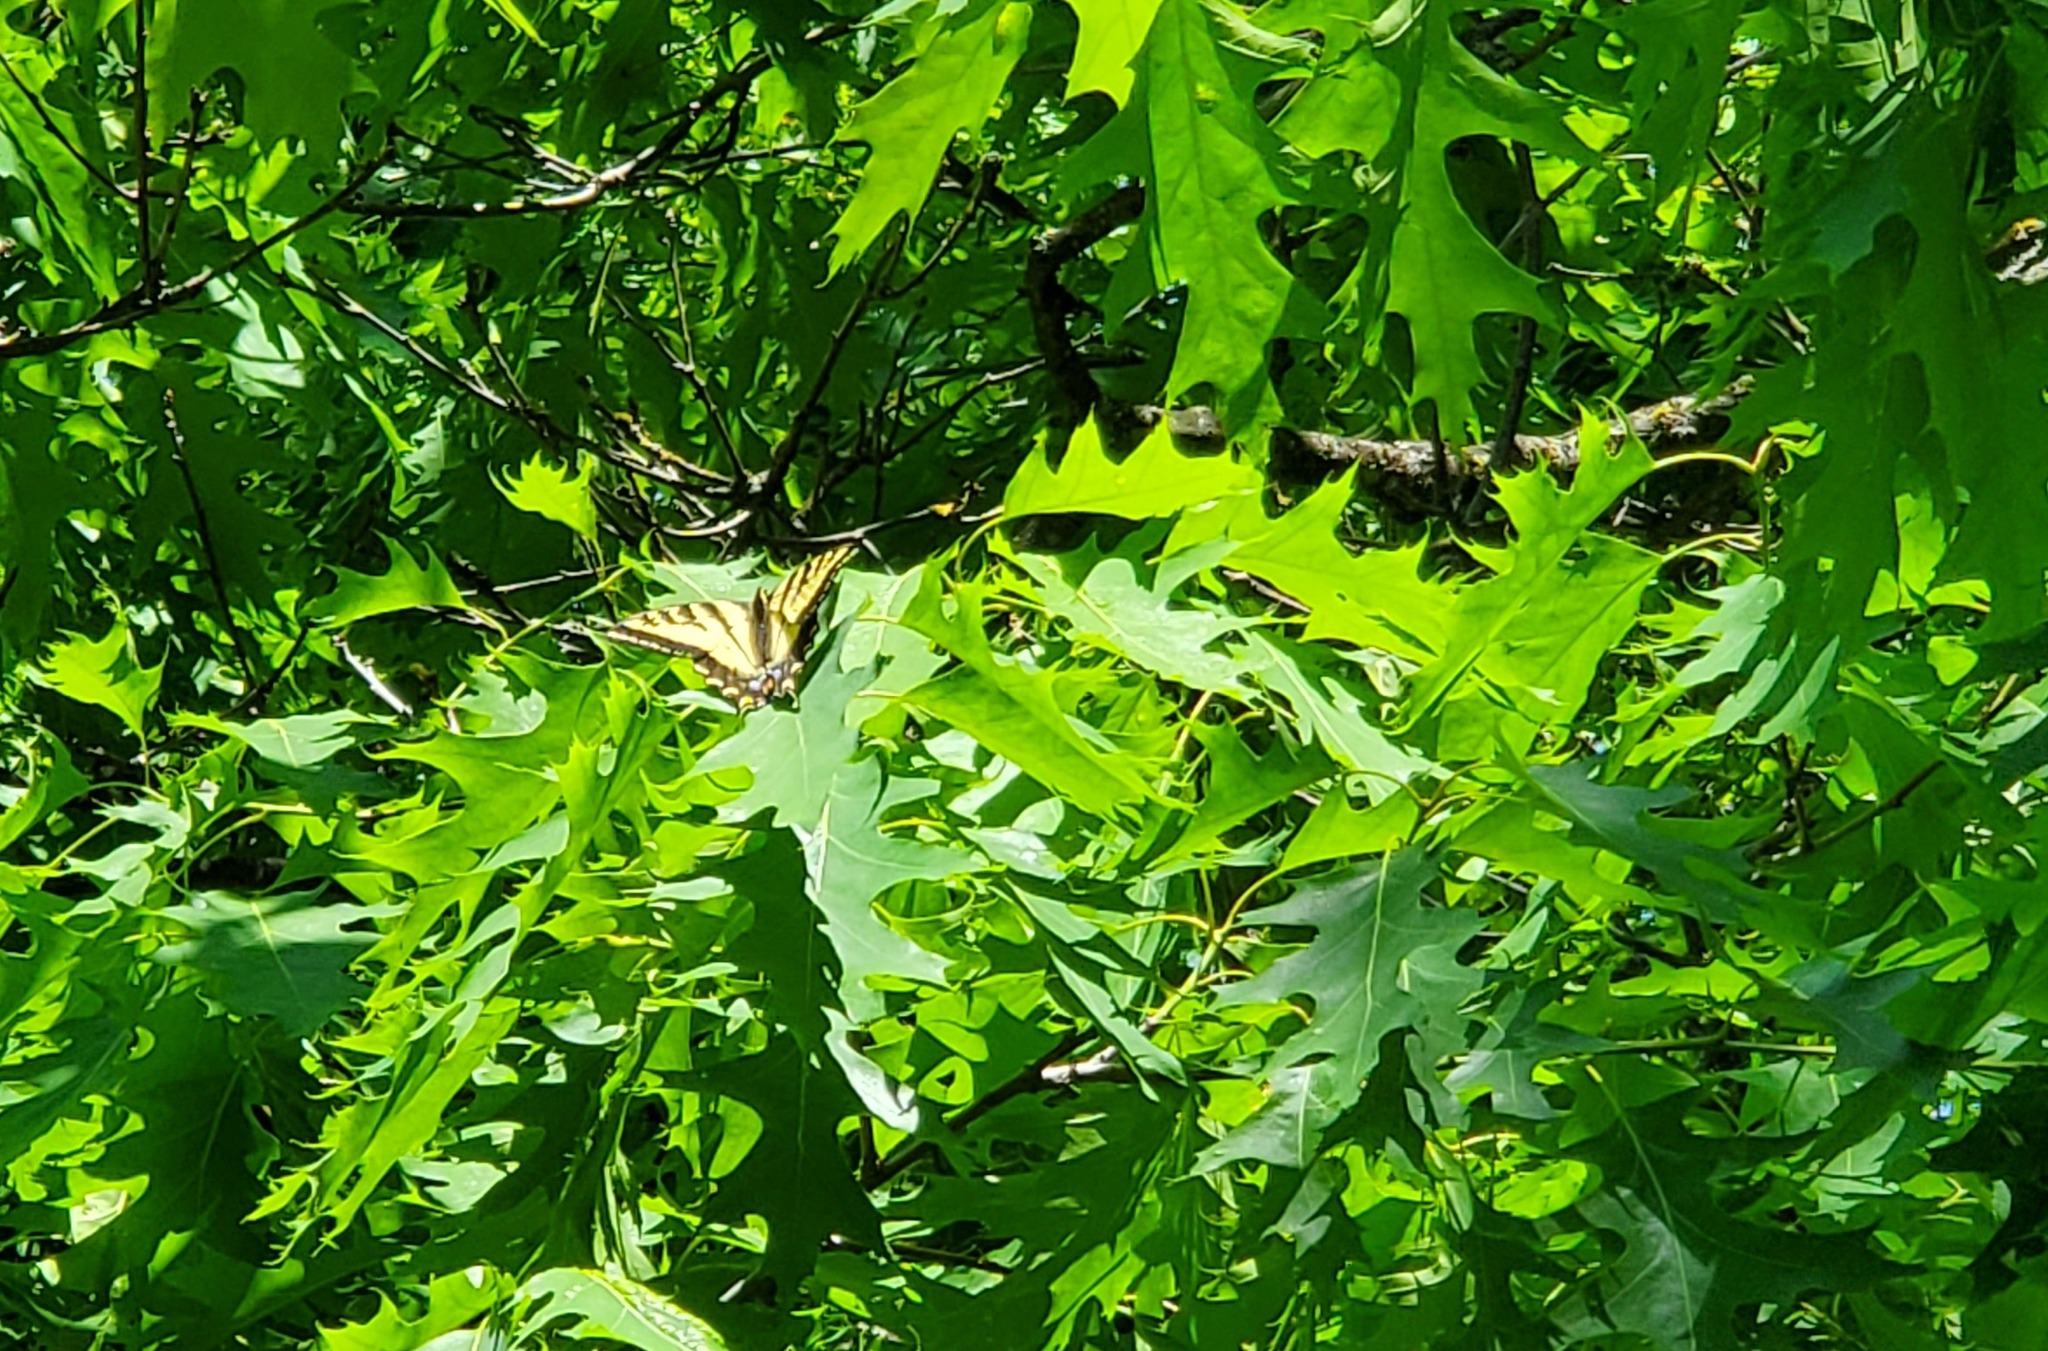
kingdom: Animalia
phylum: Arthropoda
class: Insecta
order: Lepidoptera
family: Papilionidae
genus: Papilio
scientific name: Papilio rutulus
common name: Western tiger swallowtail
